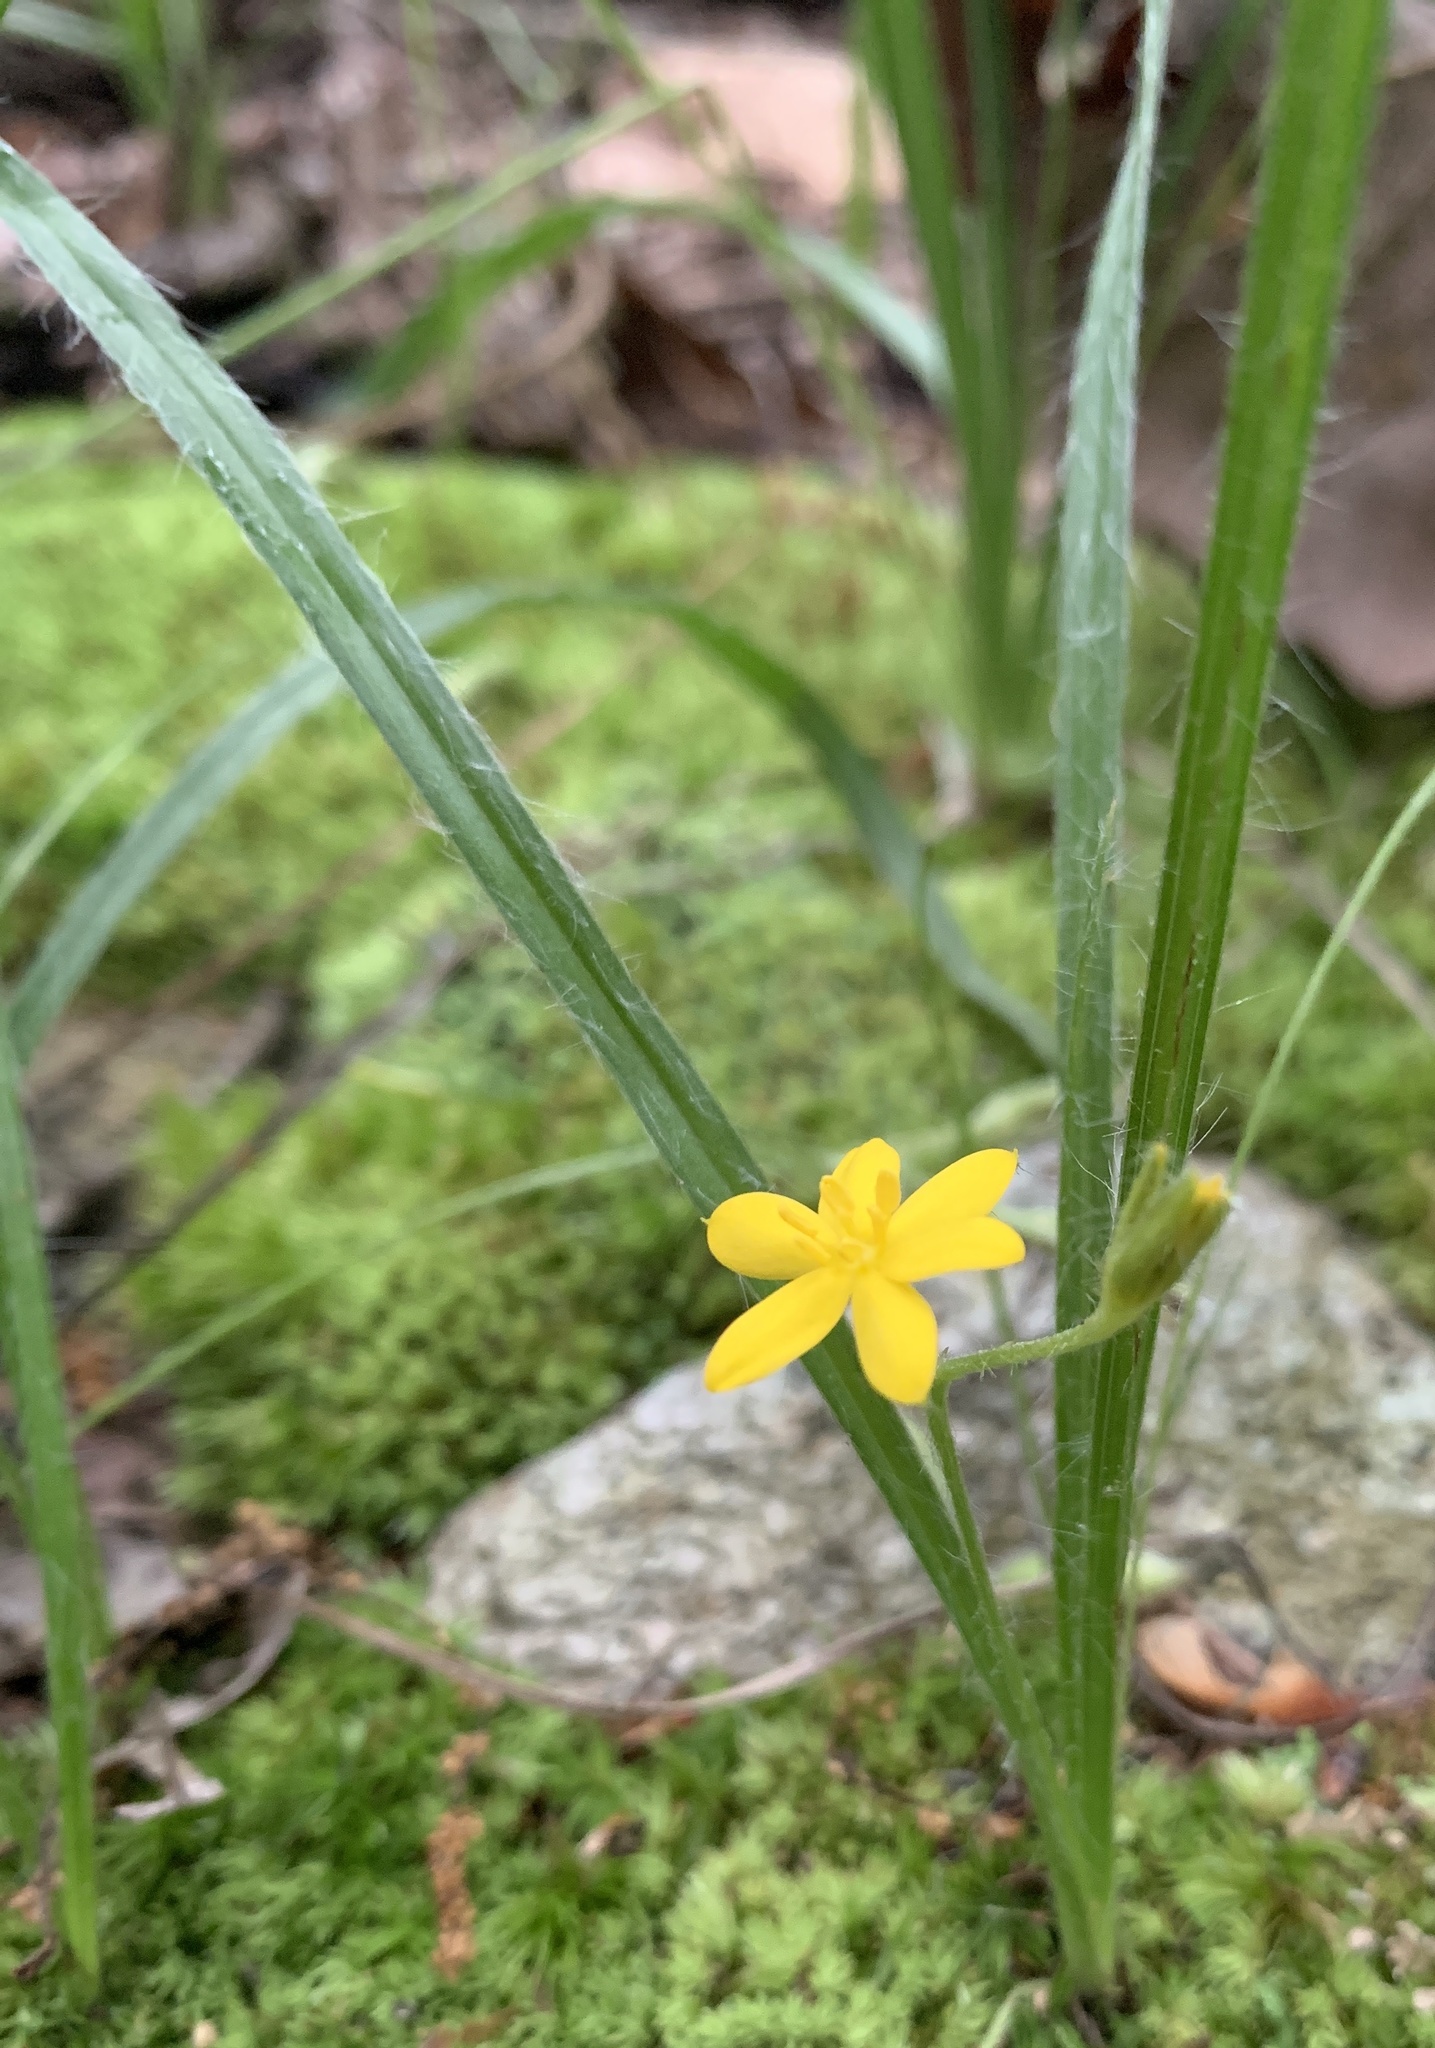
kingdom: Plantae
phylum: Tracheophyta
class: Liliopsida
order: Asparagales
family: Hypoxidaceae
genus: Hypoxis
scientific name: Hypoxis hirsuta
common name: Common goldstar
